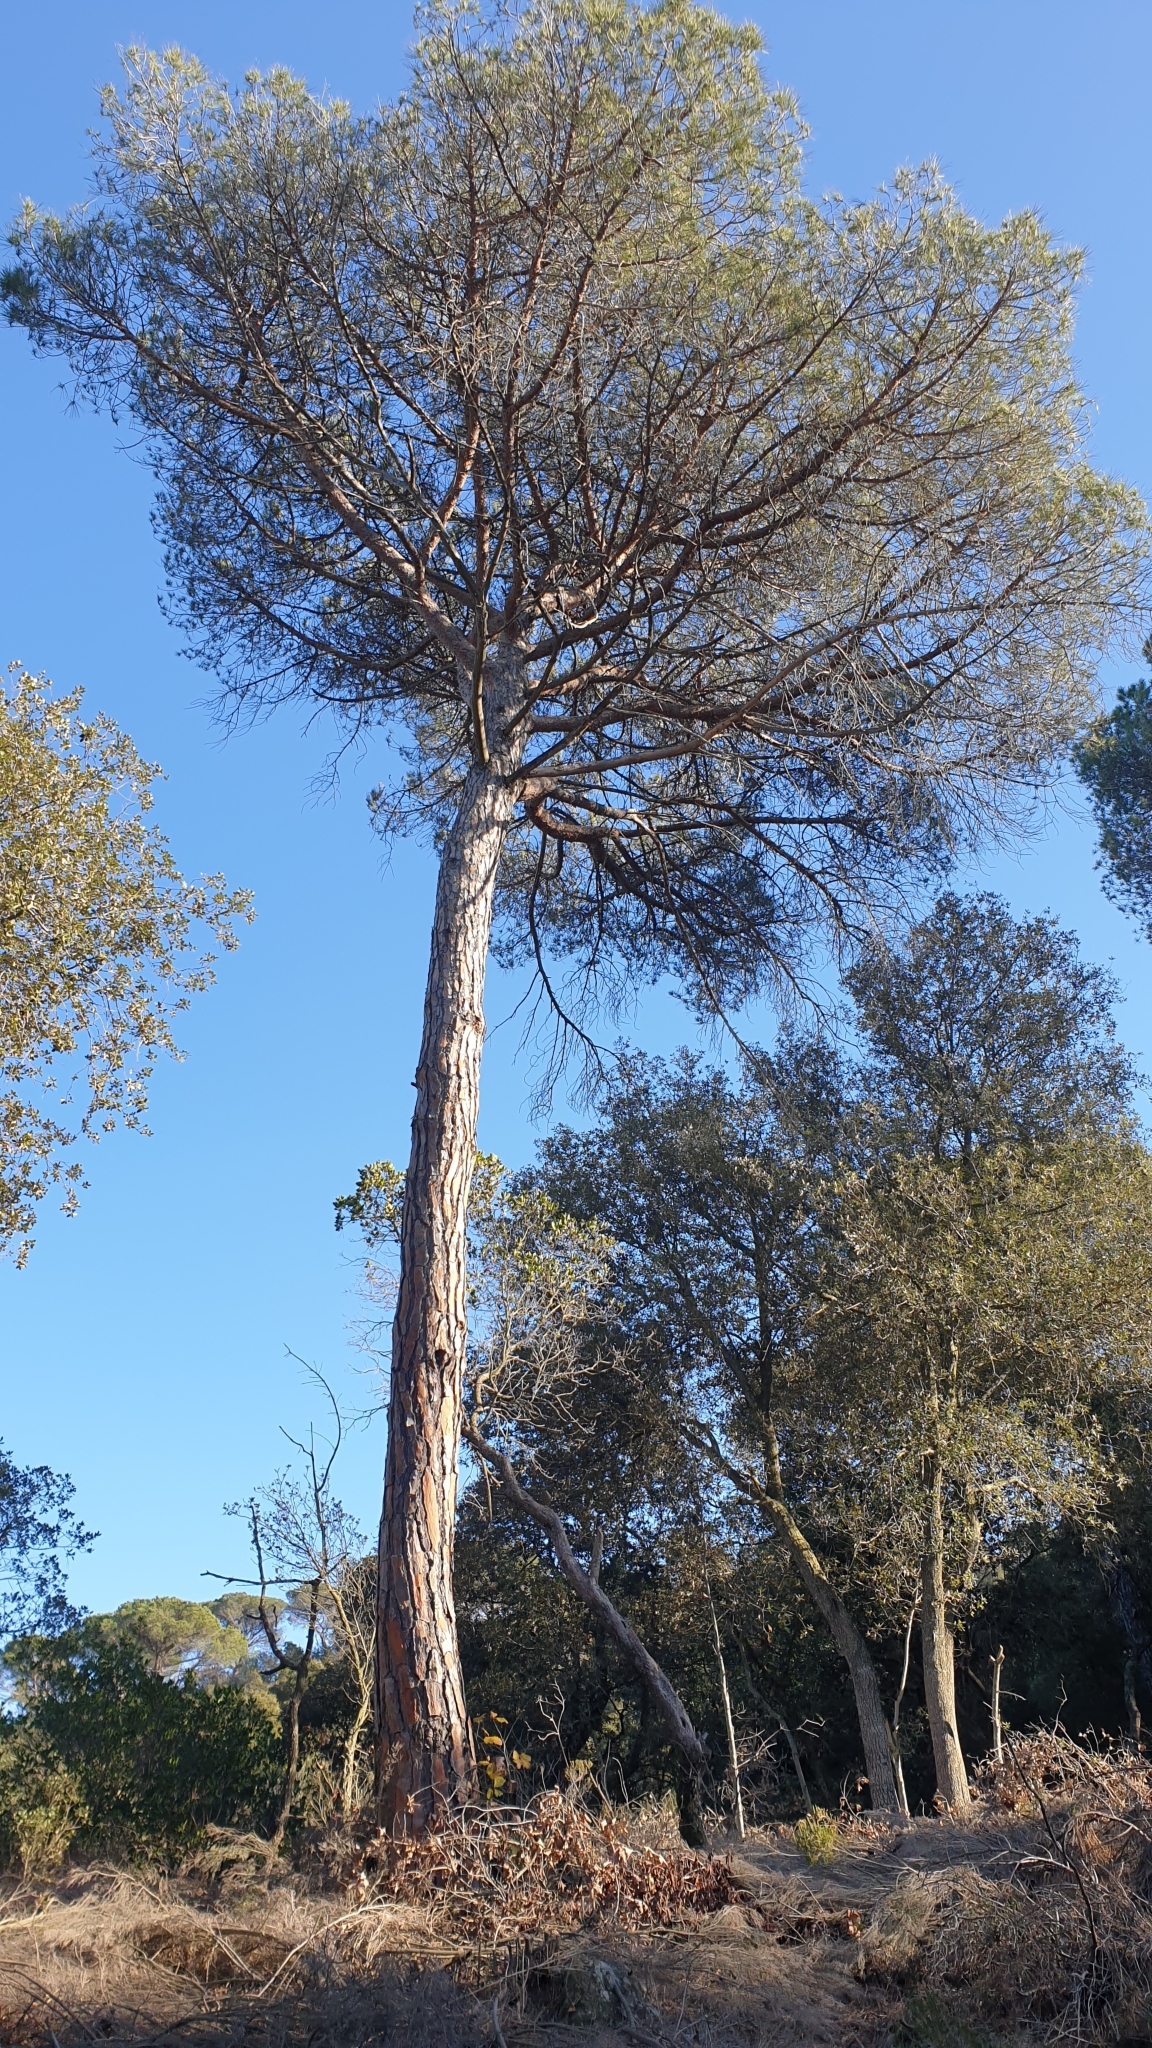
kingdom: Plantae
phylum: Tracheophyta
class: Pinopsida
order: Pinales
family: Pinaceae
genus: Pinus
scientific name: Pinus pinea
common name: Italian stone pine
